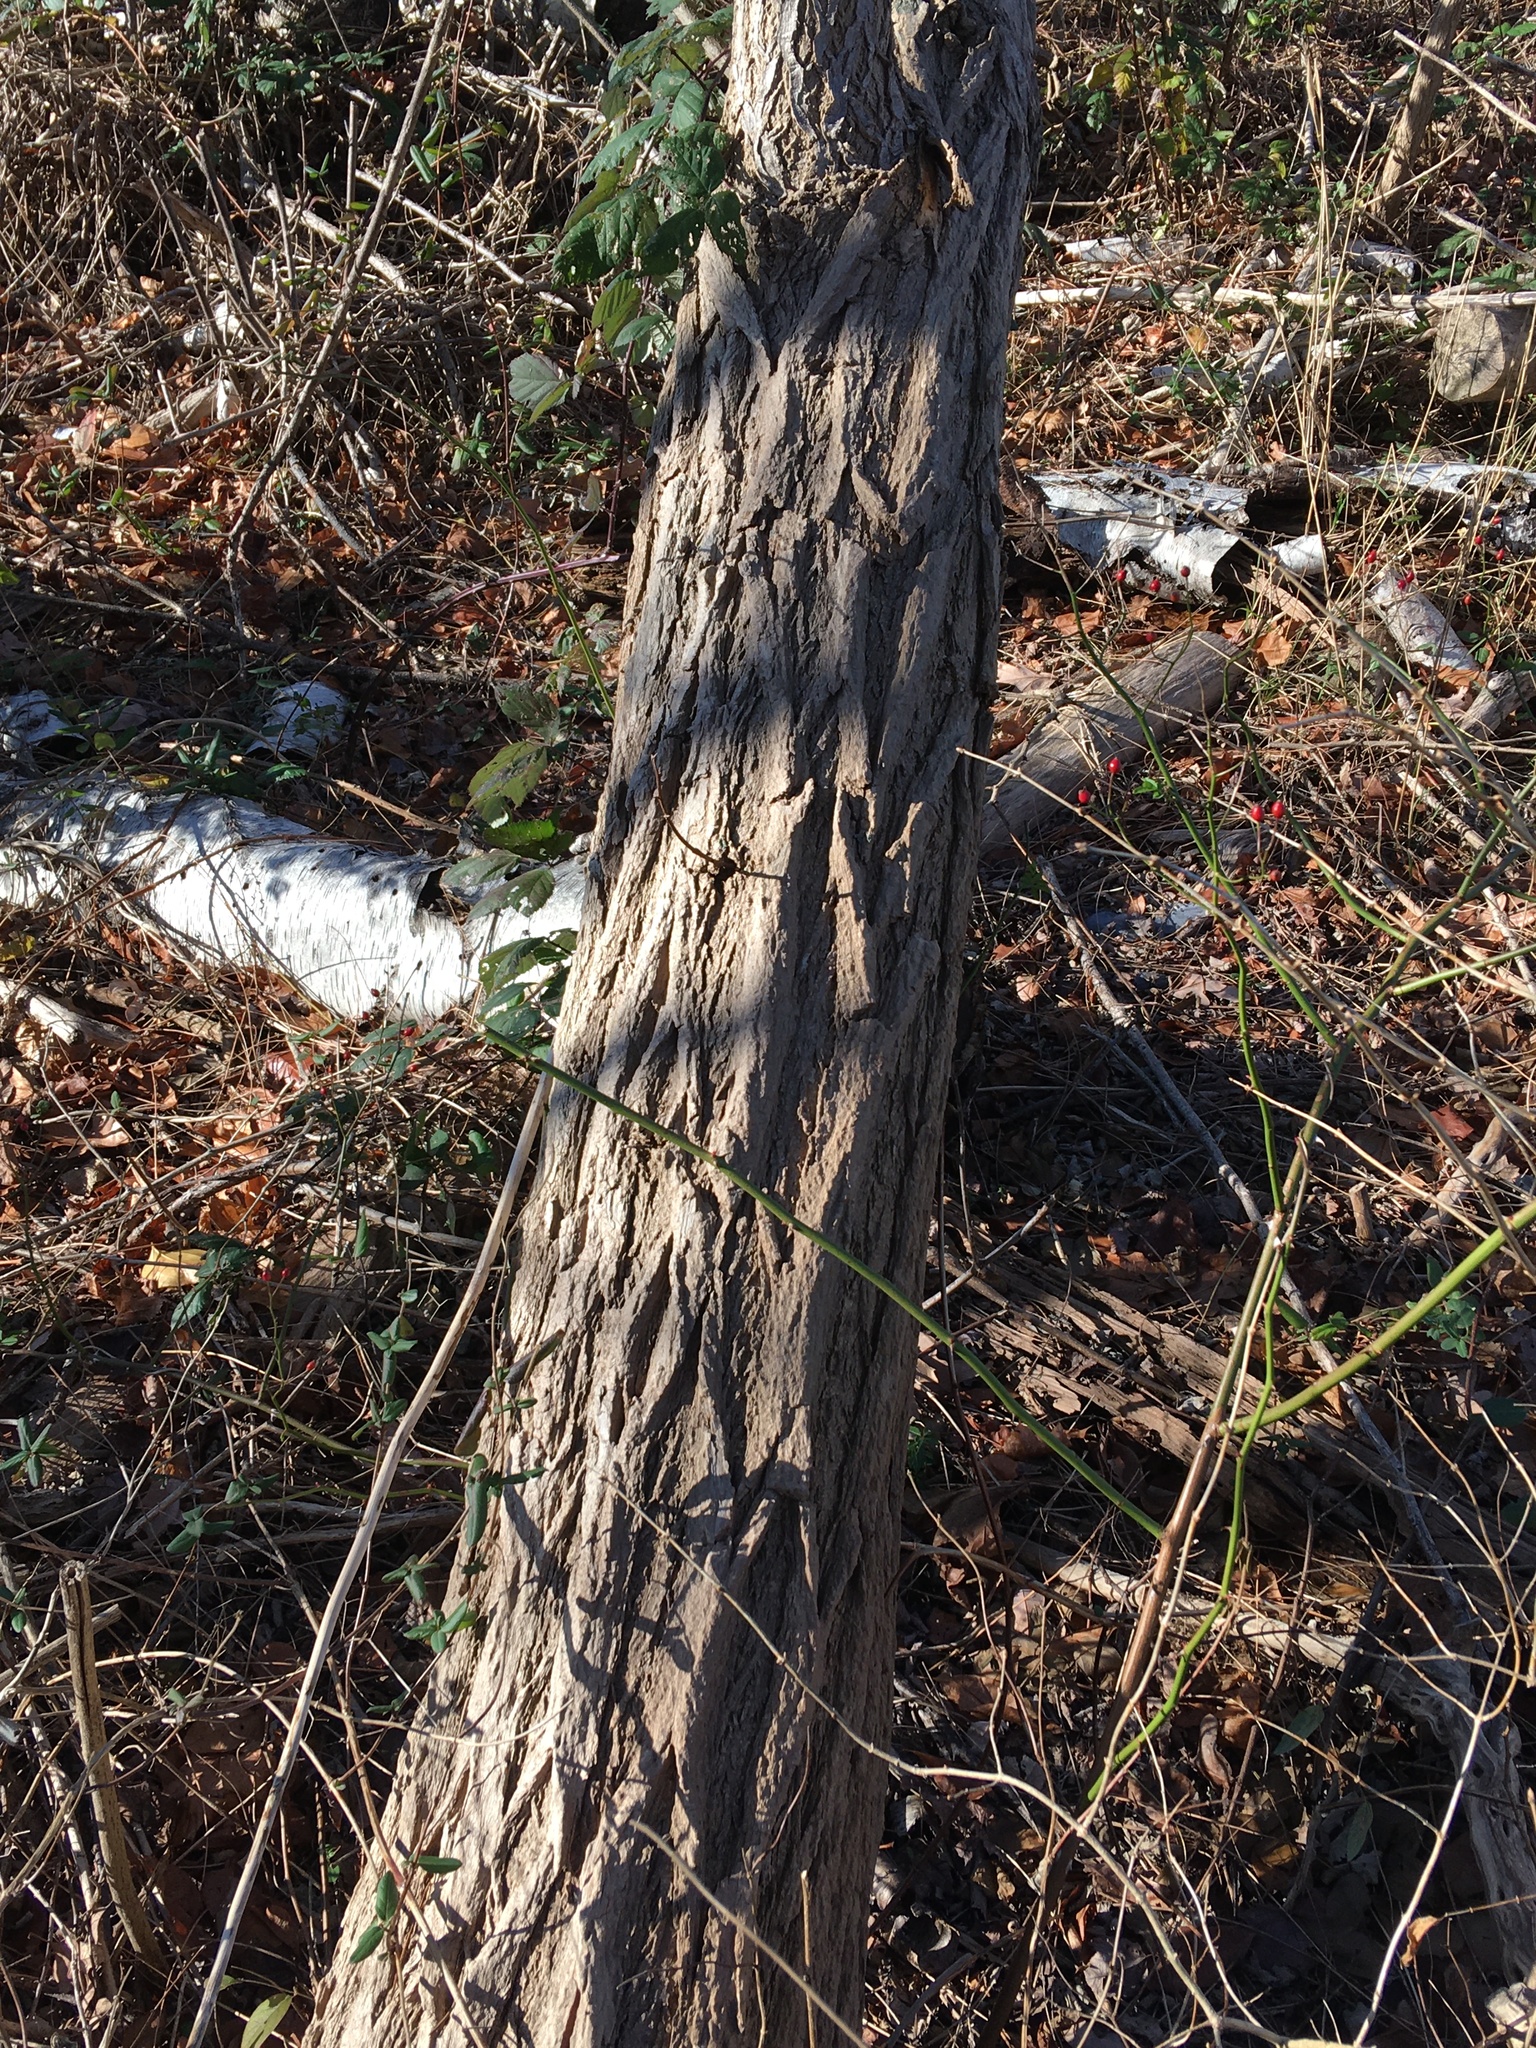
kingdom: Plantae
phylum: Tracheophyta
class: Magnoliopsida
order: Fabales
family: Fabaceae
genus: Robinia
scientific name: Robinia pseudoacacia
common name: Black locust
